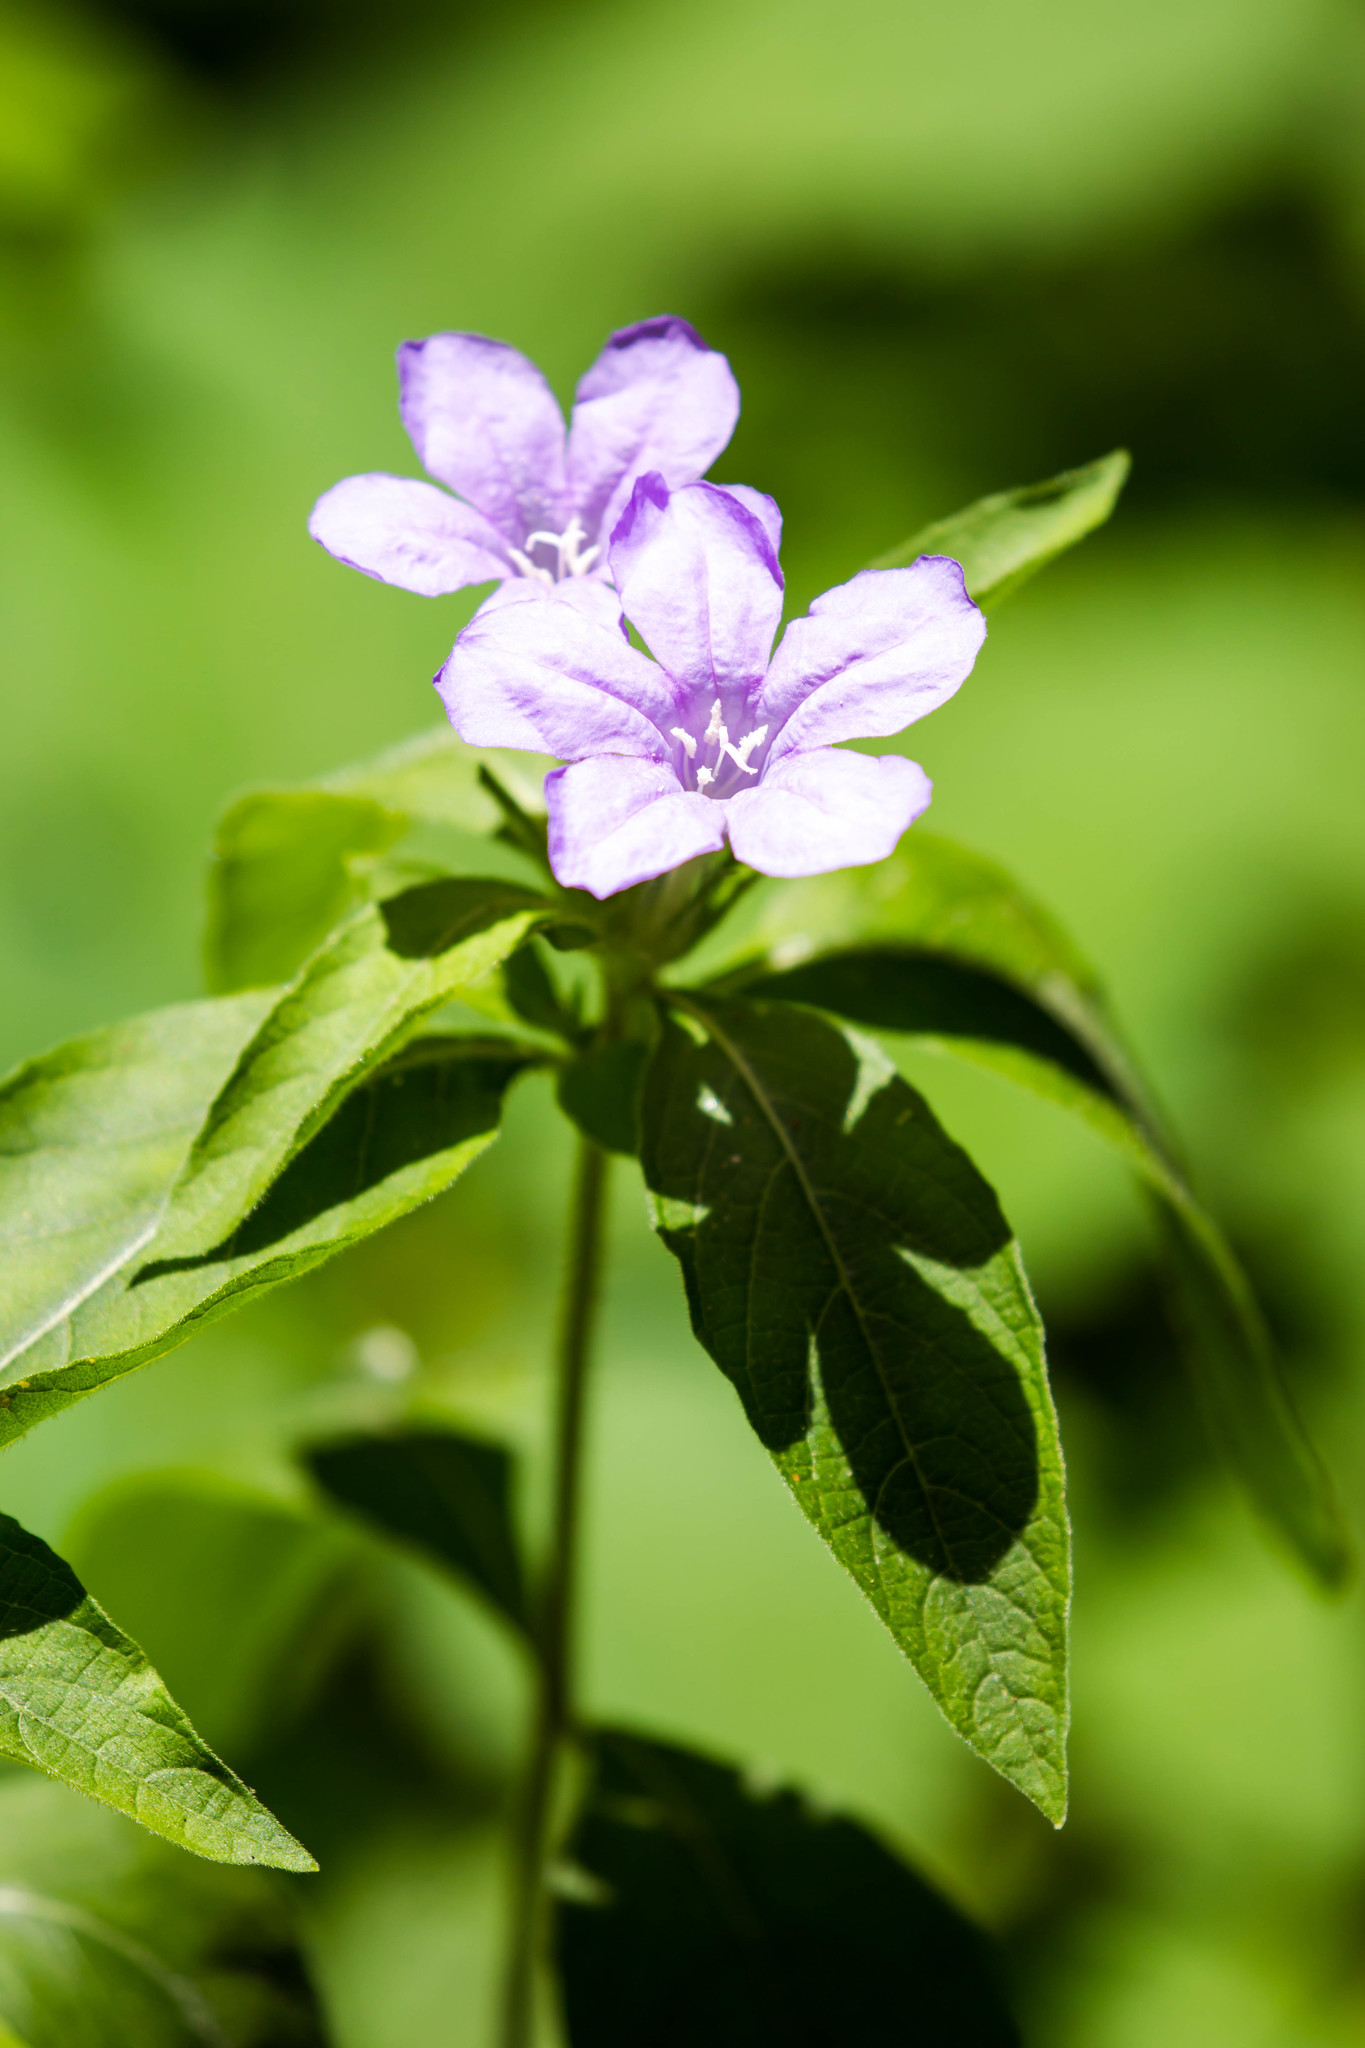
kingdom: Plantae
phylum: Tracheophyta
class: Magnoliopsida
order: Lamiales
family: Acanthaceae
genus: Ruellia
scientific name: Ruellia caroliniensis
